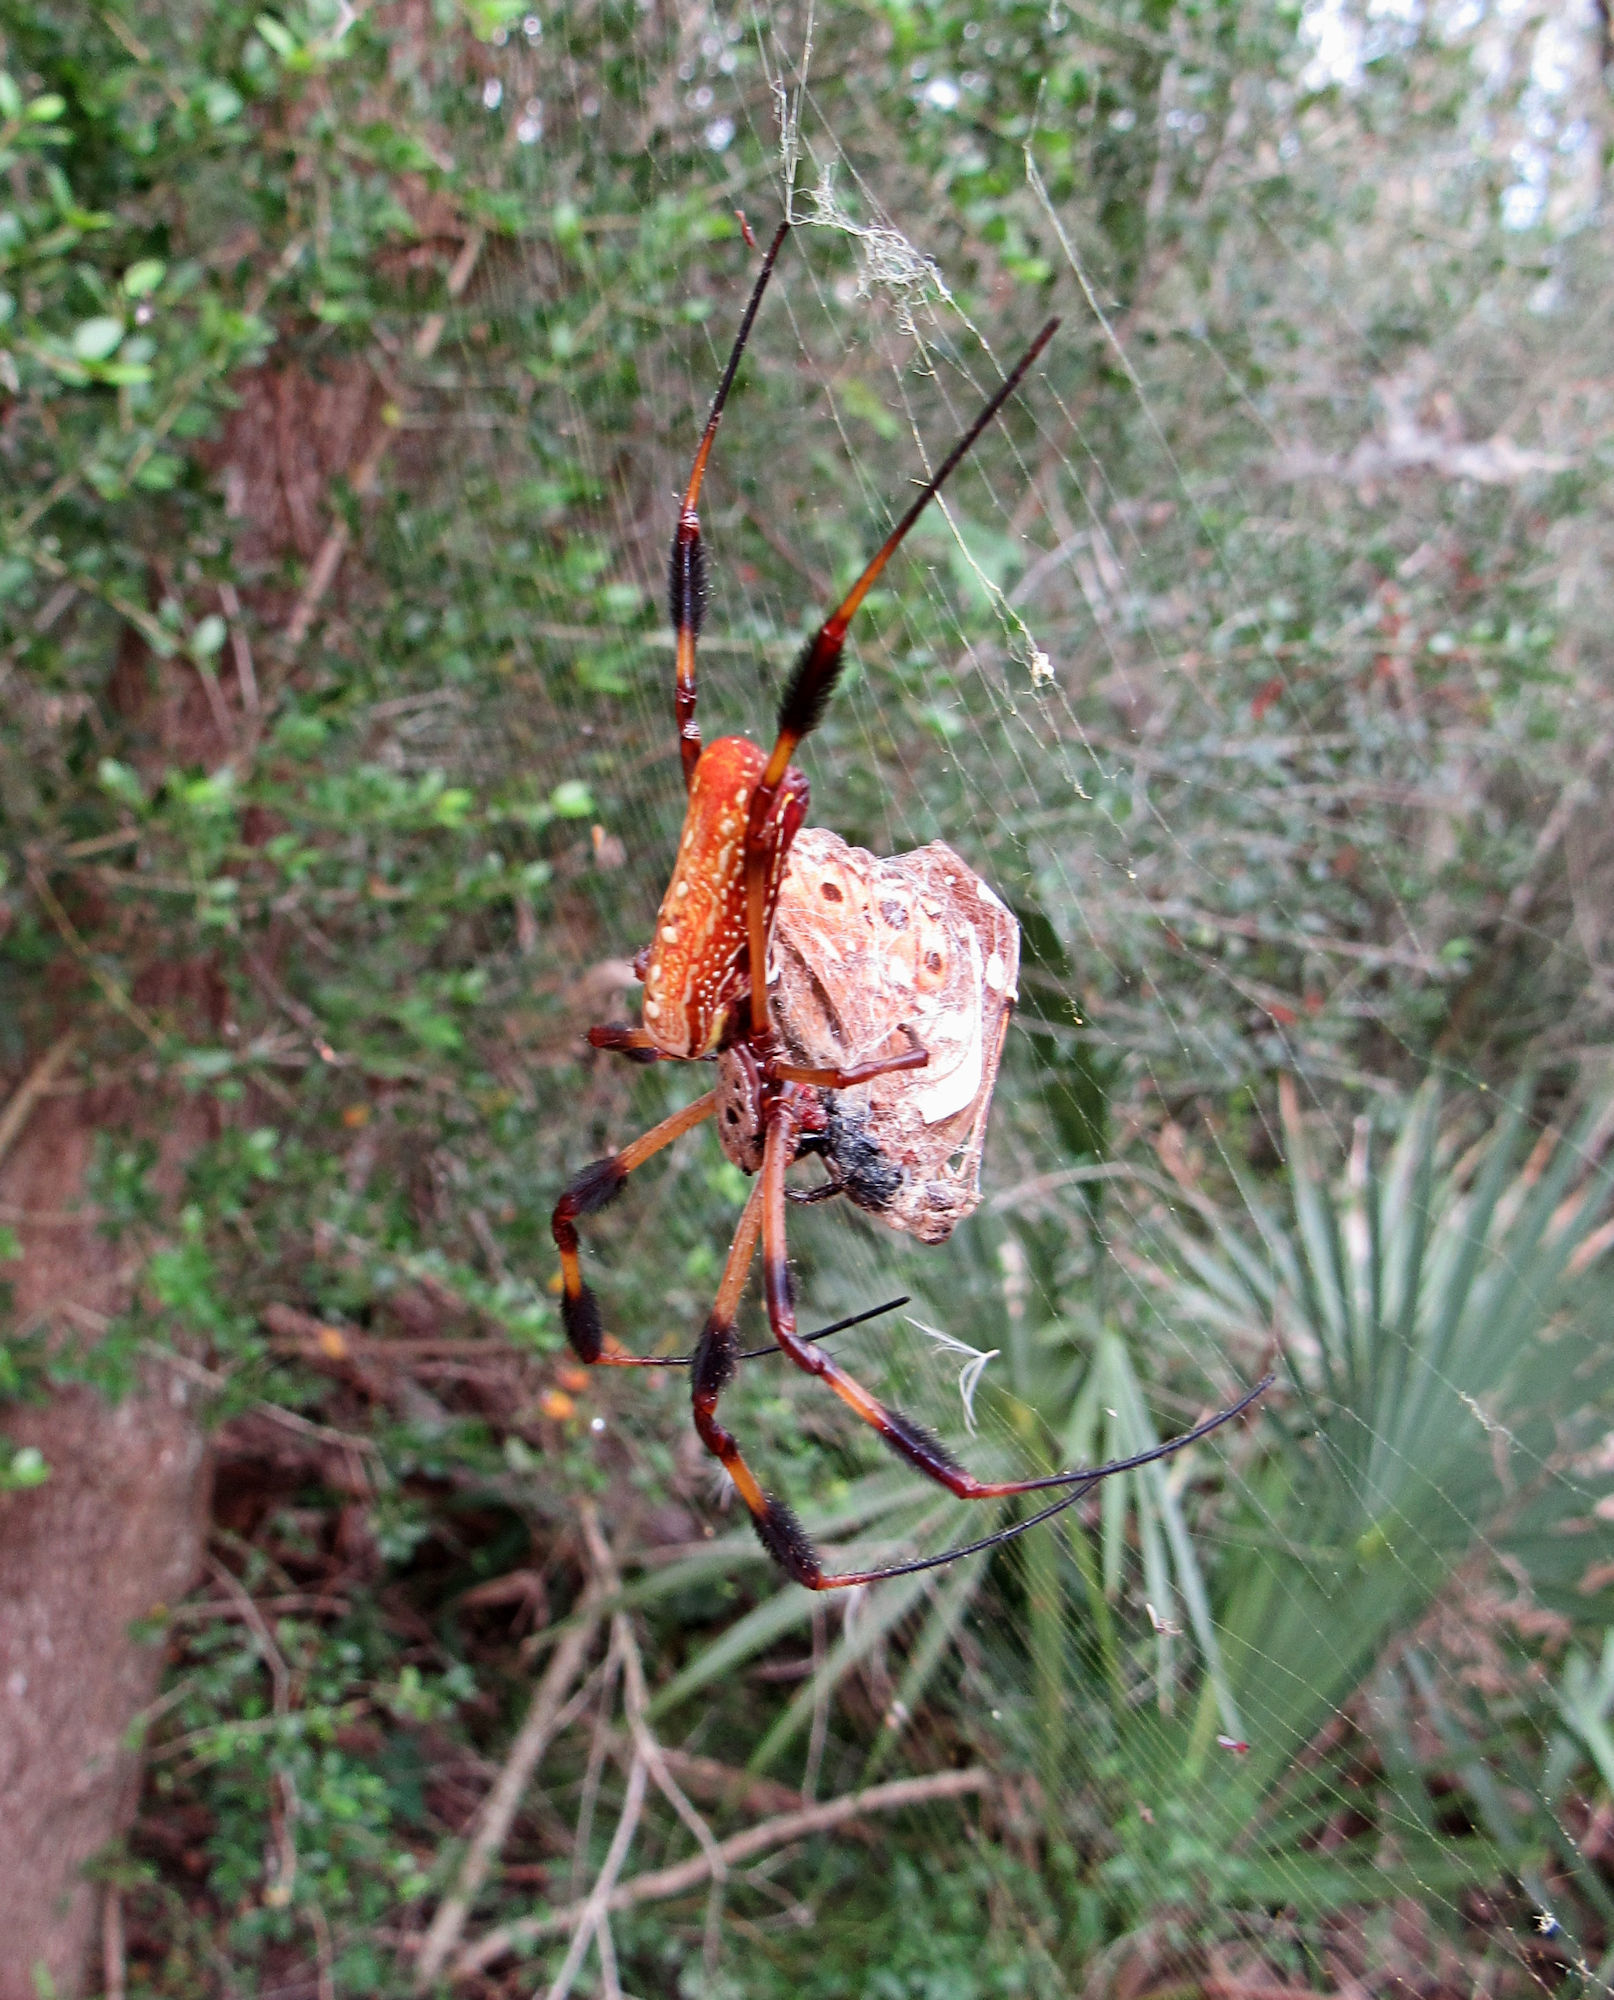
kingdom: Animalia
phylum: Arthropoda
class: Arachnida
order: Araneae
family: Araneidae
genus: Trichonephila
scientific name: Trichonephila clavipes
